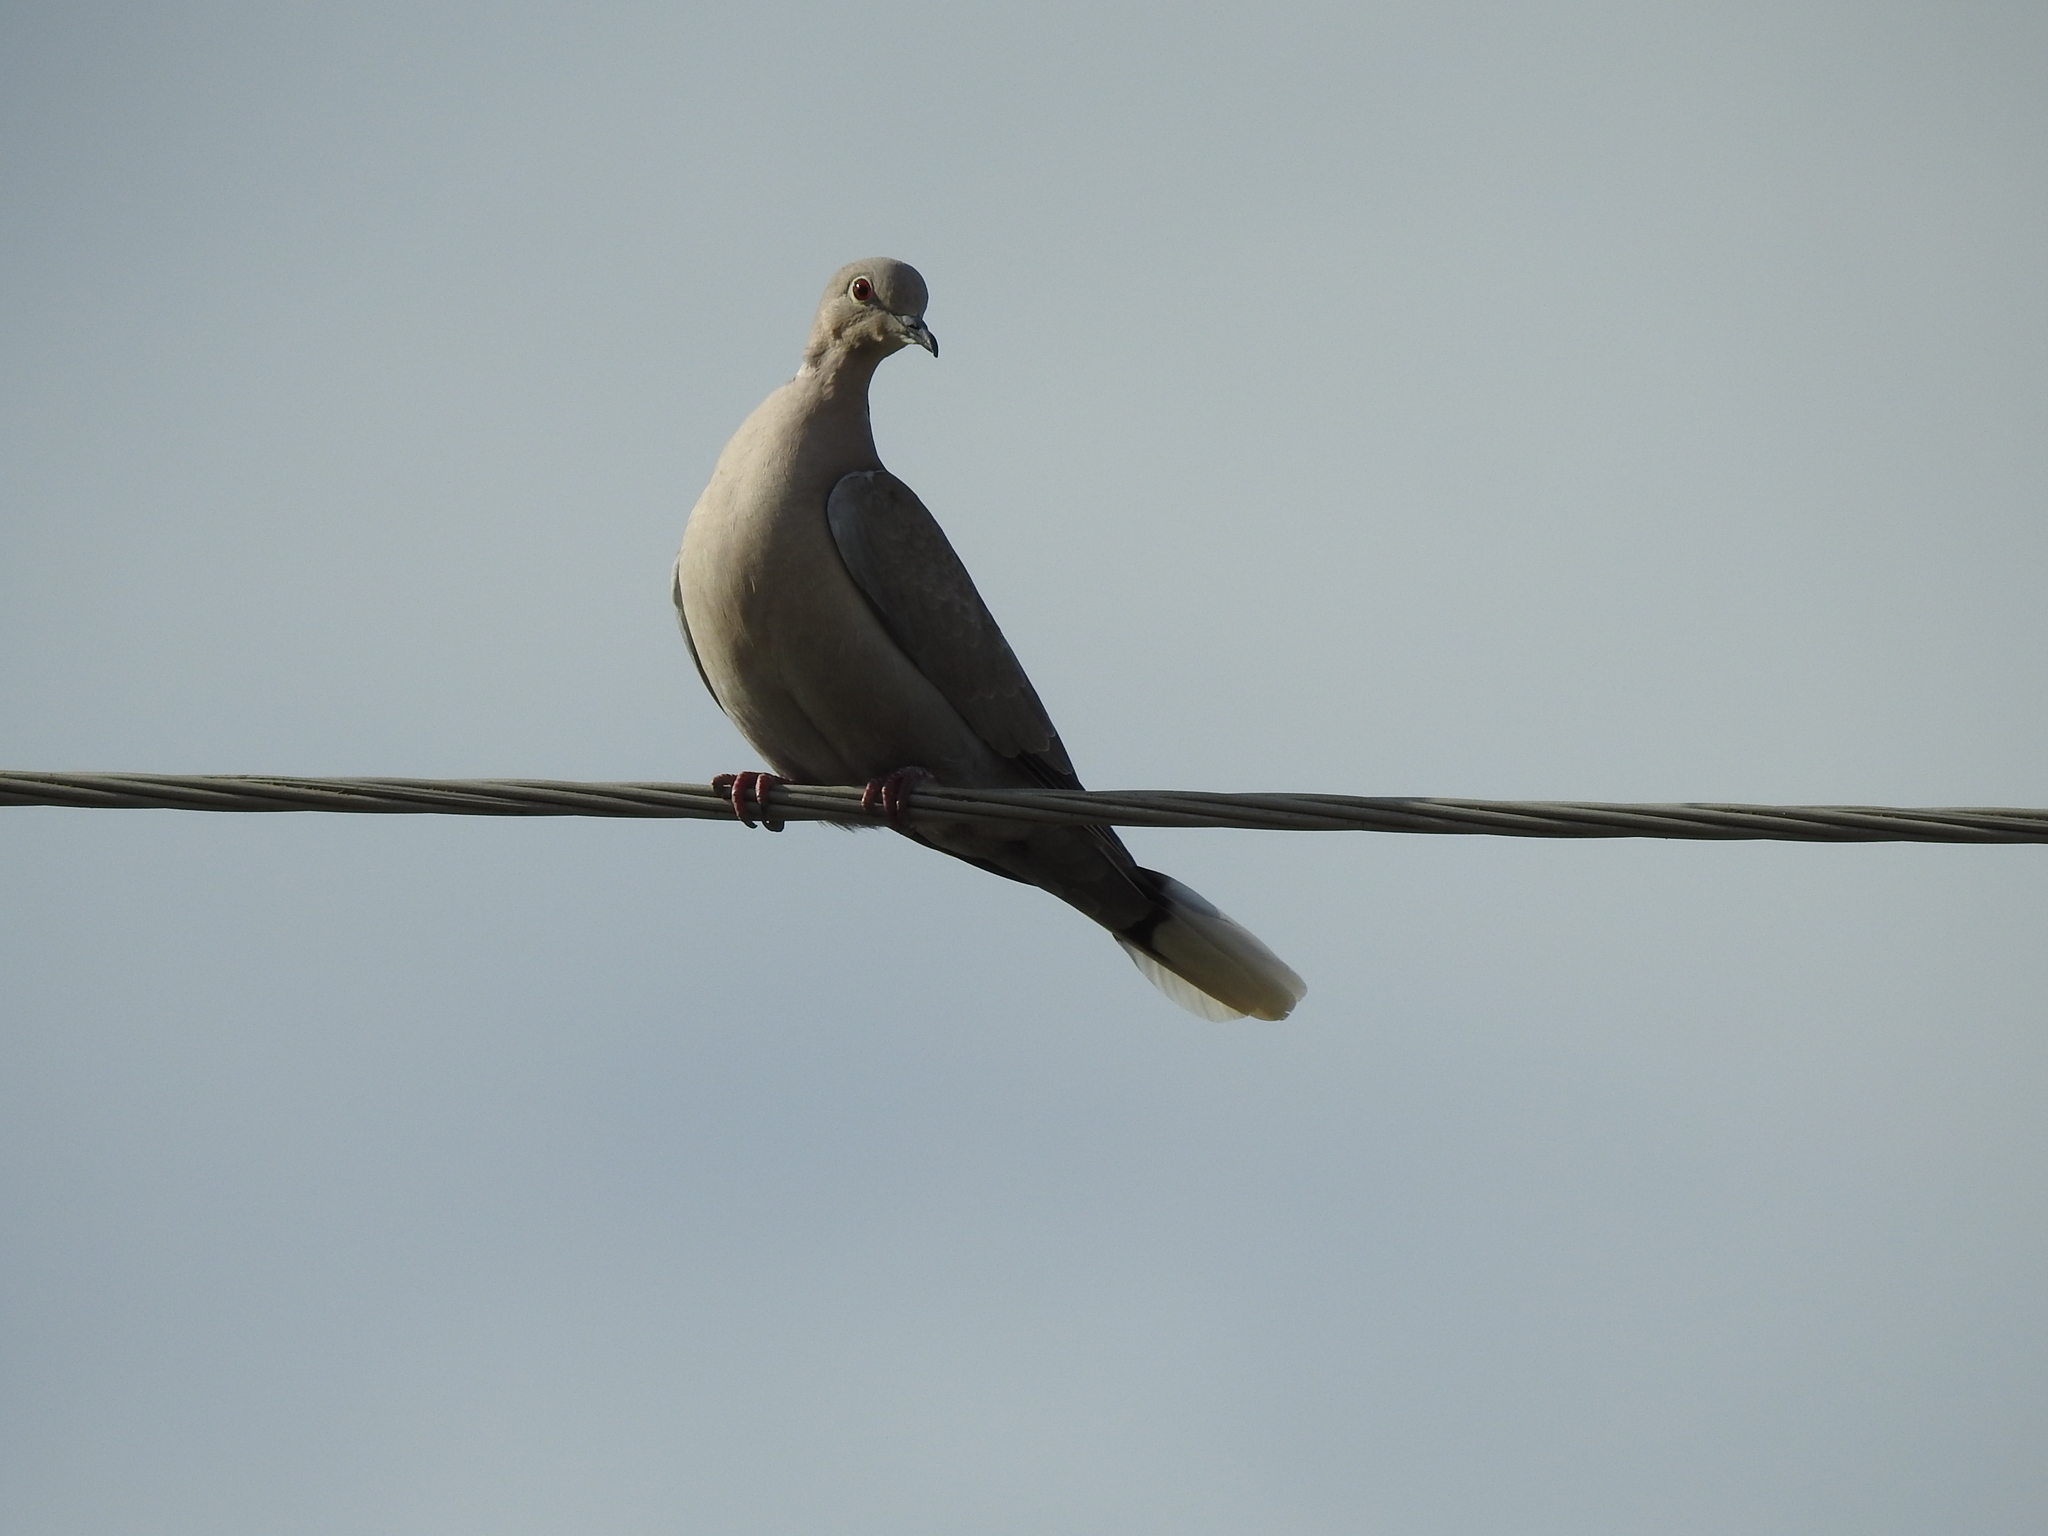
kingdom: Animalia
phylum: Chordata
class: Aves
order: Columbiformes
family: Columbidae
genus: Streptopelia
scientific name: Streptopelia decaocto
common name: Eurasian collared dove
